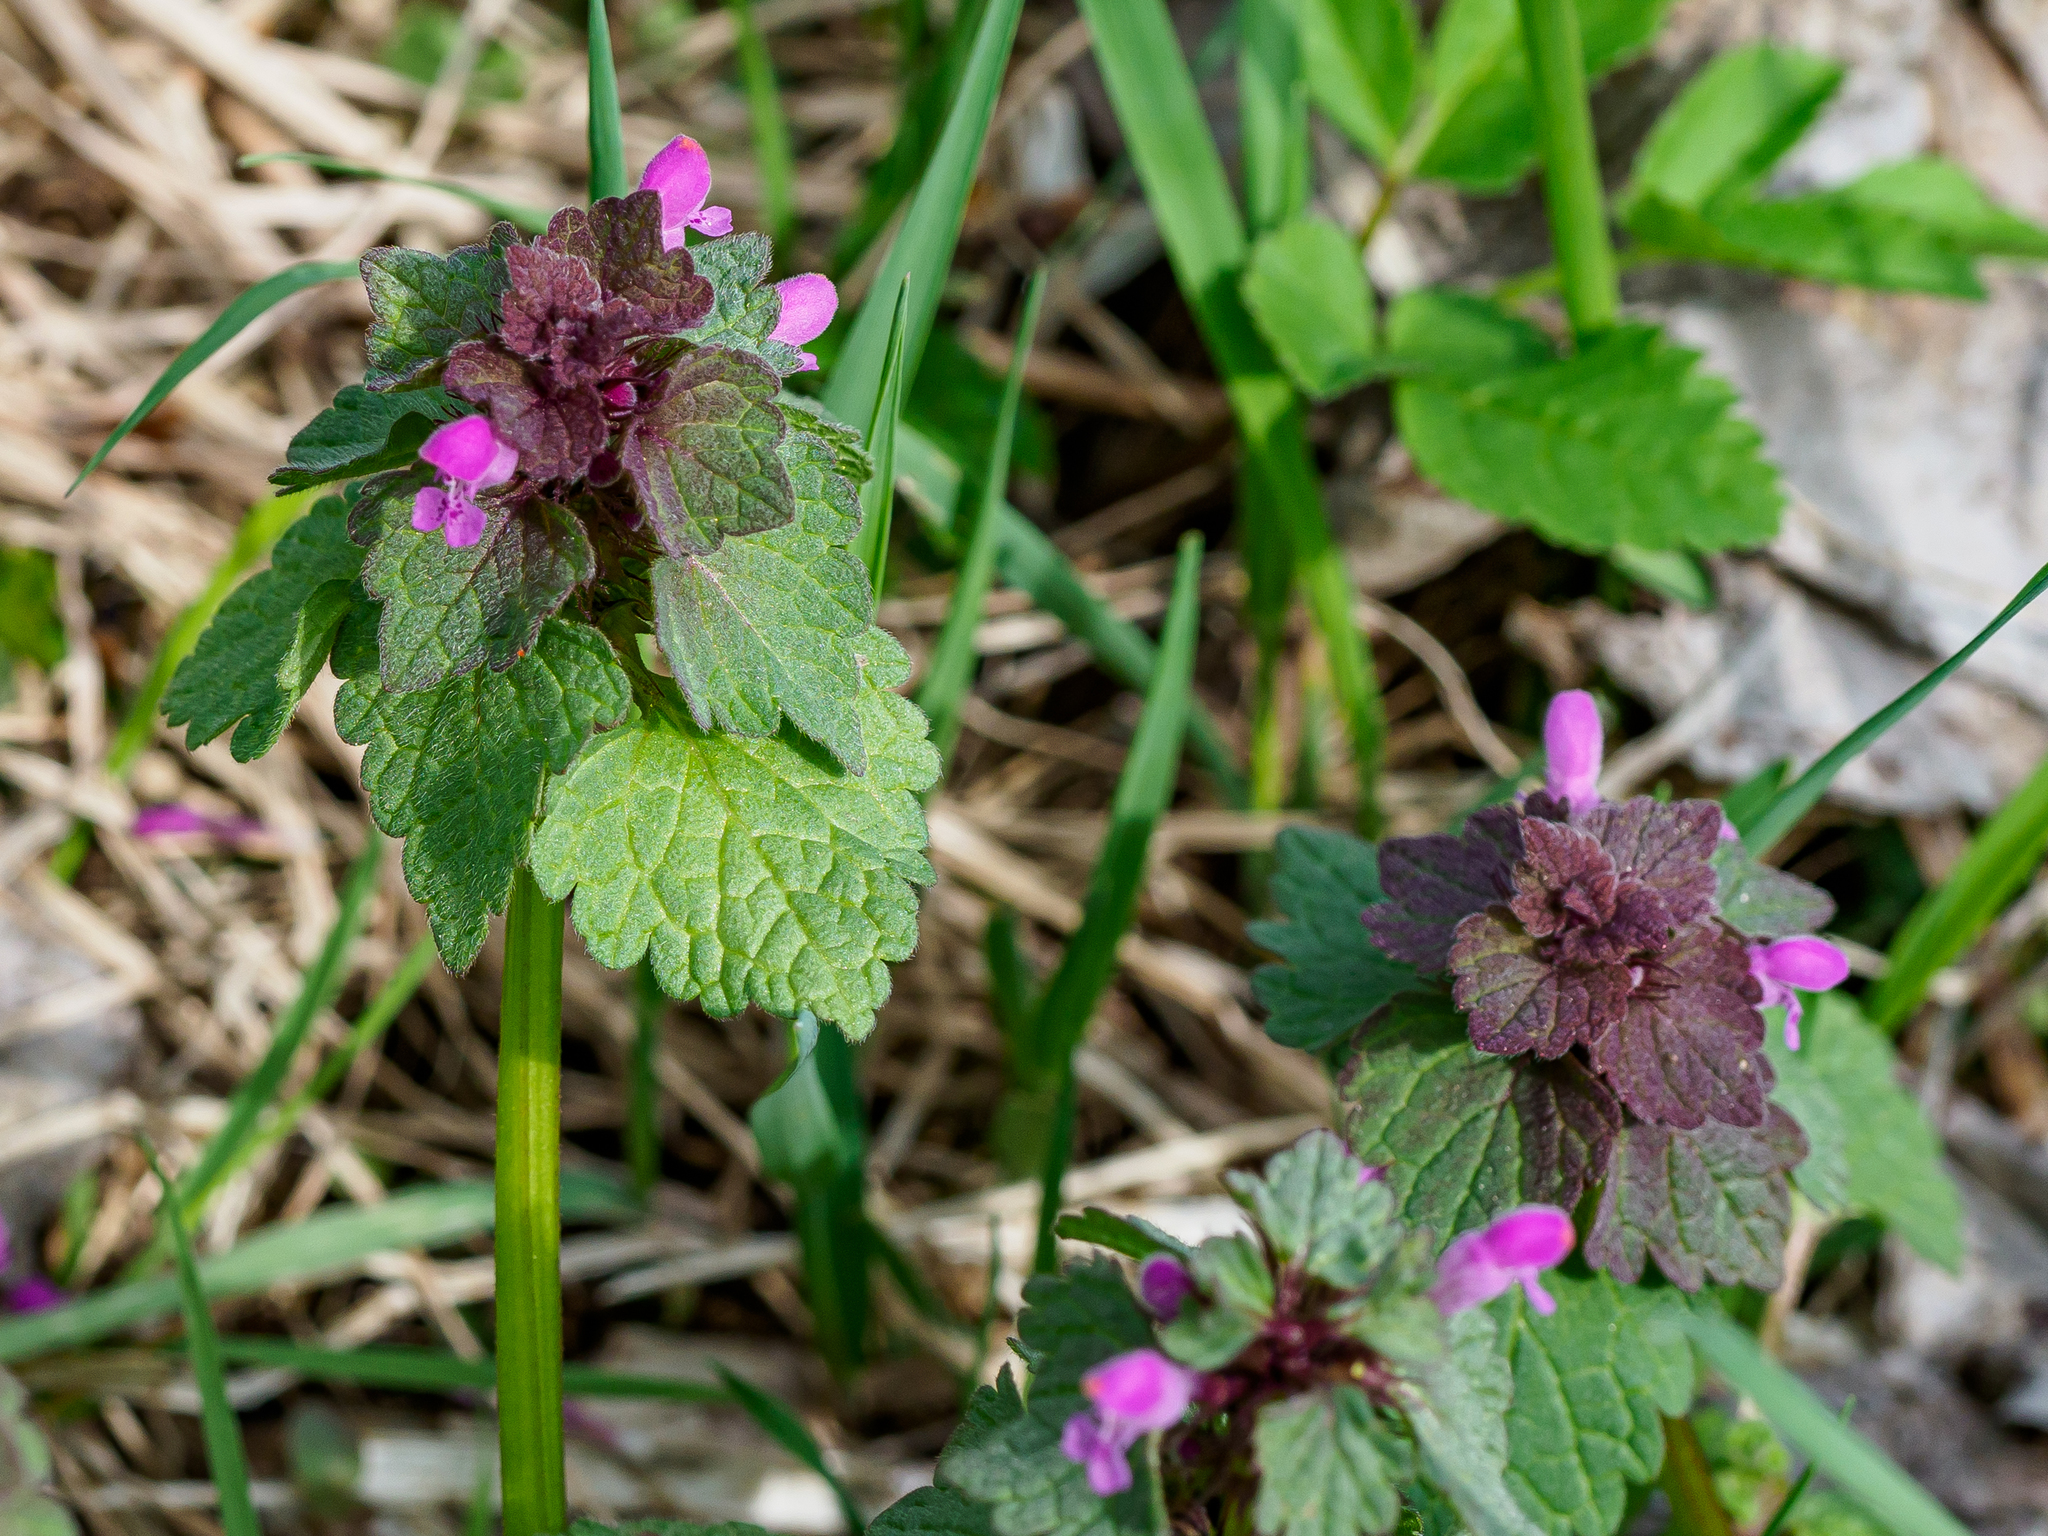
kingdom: Plantae
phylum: Tracheophyta
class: Magnoliopsida
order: Lamiales
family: Lamiaceae
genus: Lamium
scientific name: Lamium purpureum
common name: Red dead-nettle
